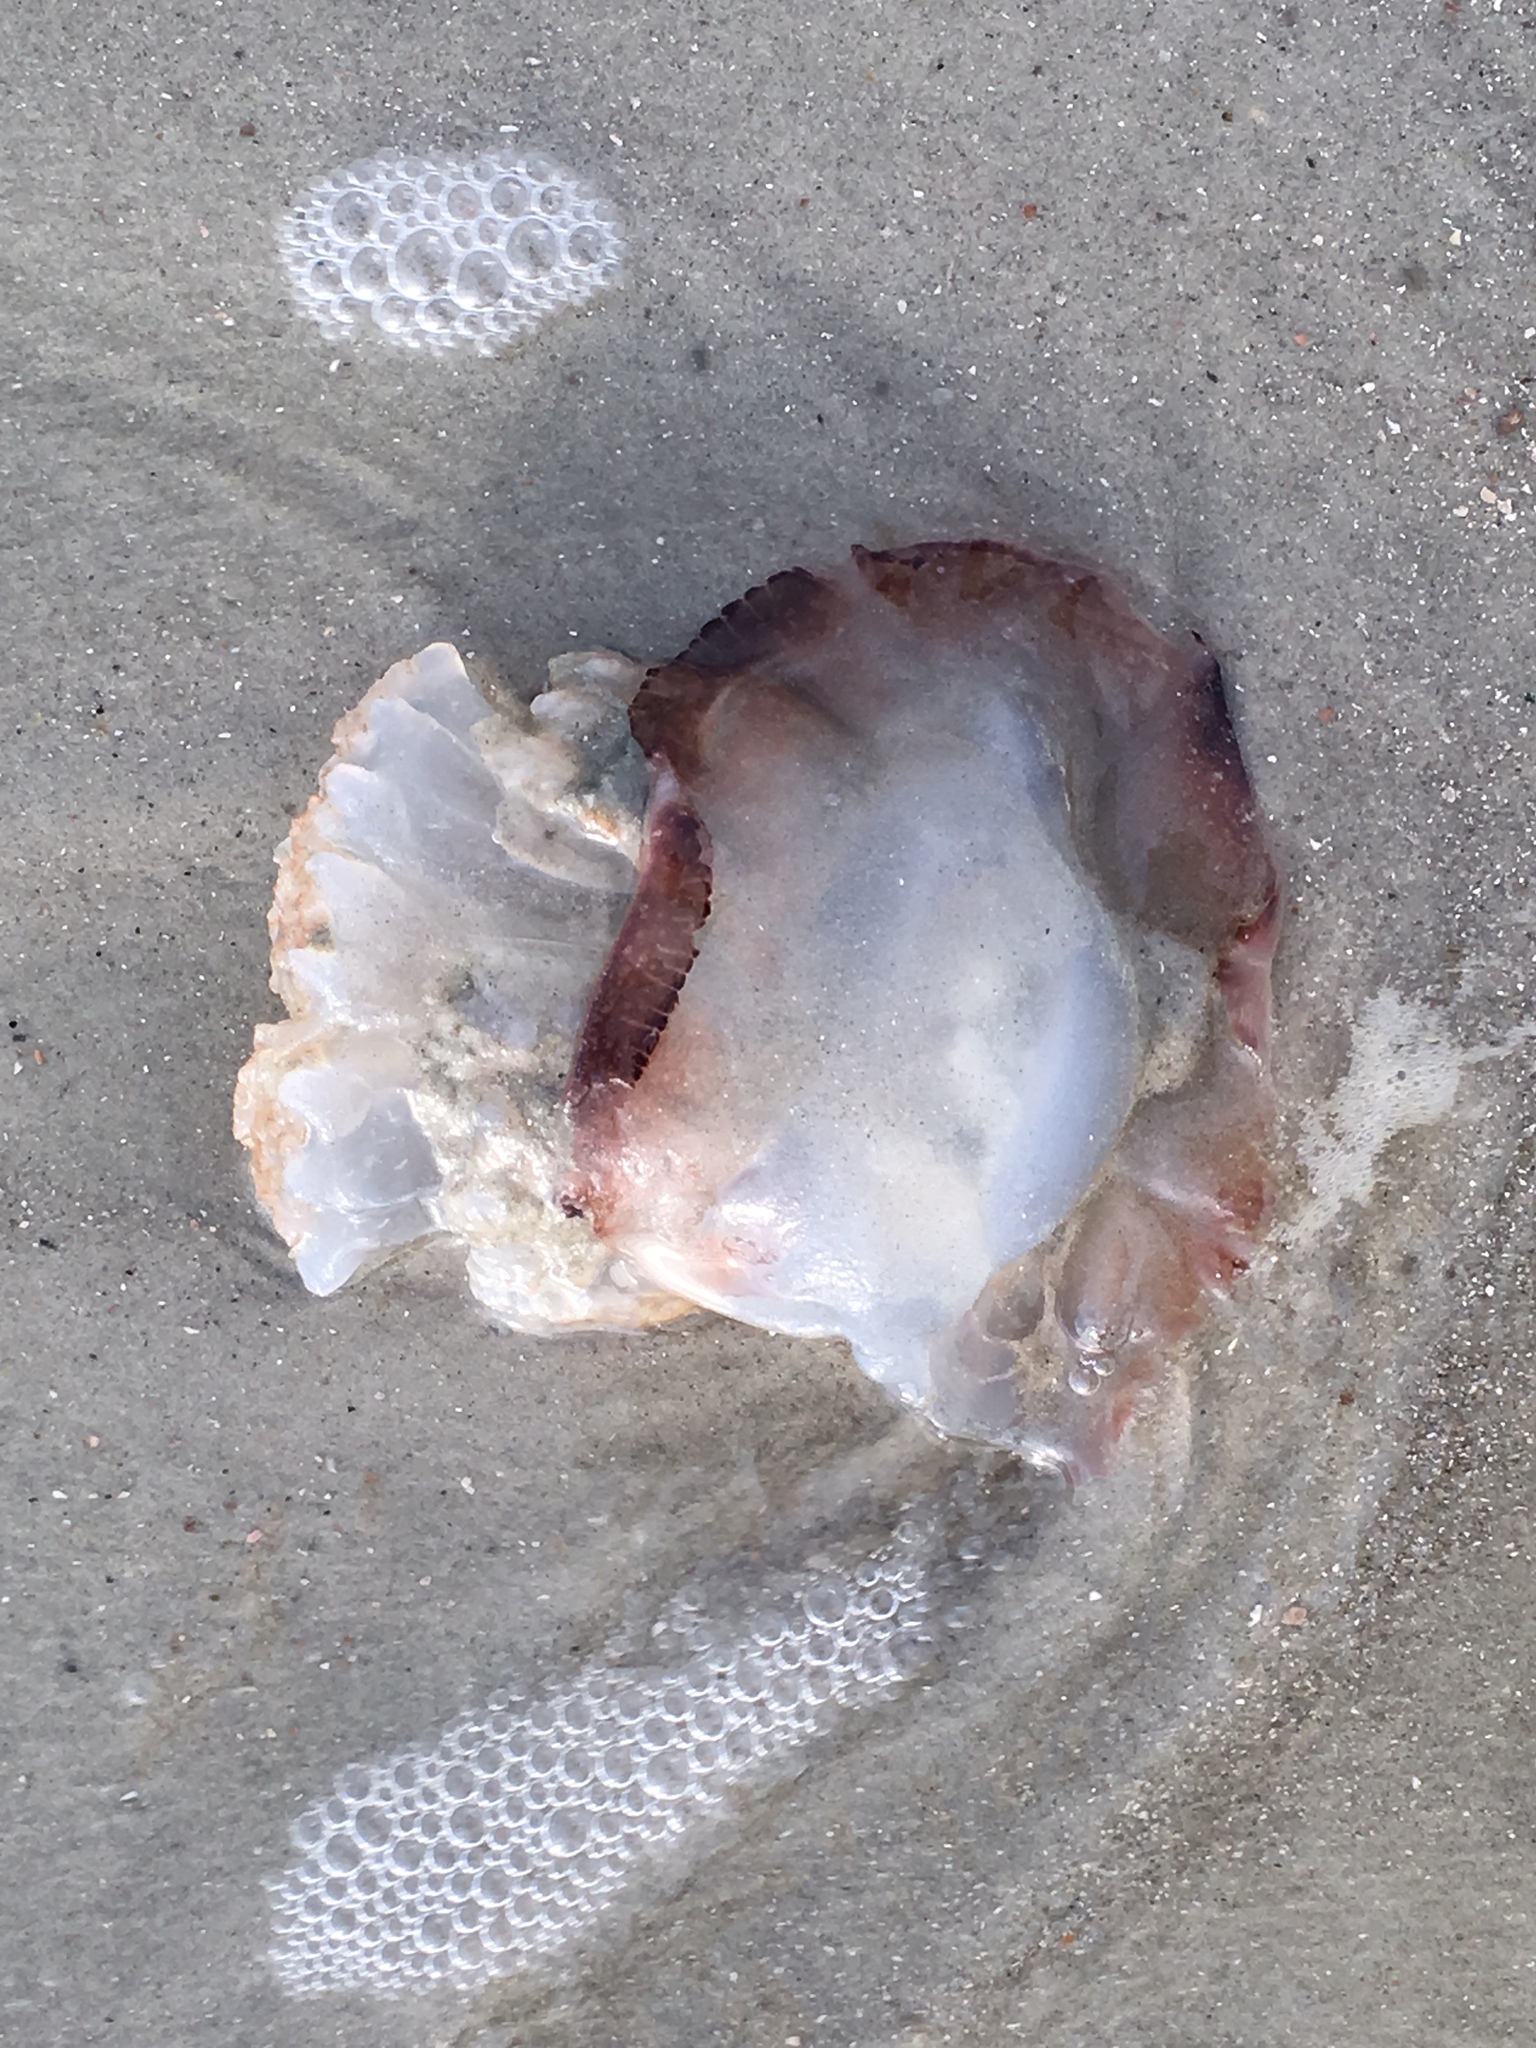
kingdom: Animalia
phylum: Cnidaria
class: Scyphozoa
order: Rhizostomeae
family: Stomolophidae
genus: Stomolophus
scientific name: Stomolophus meleagris
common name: Cabbagehead
